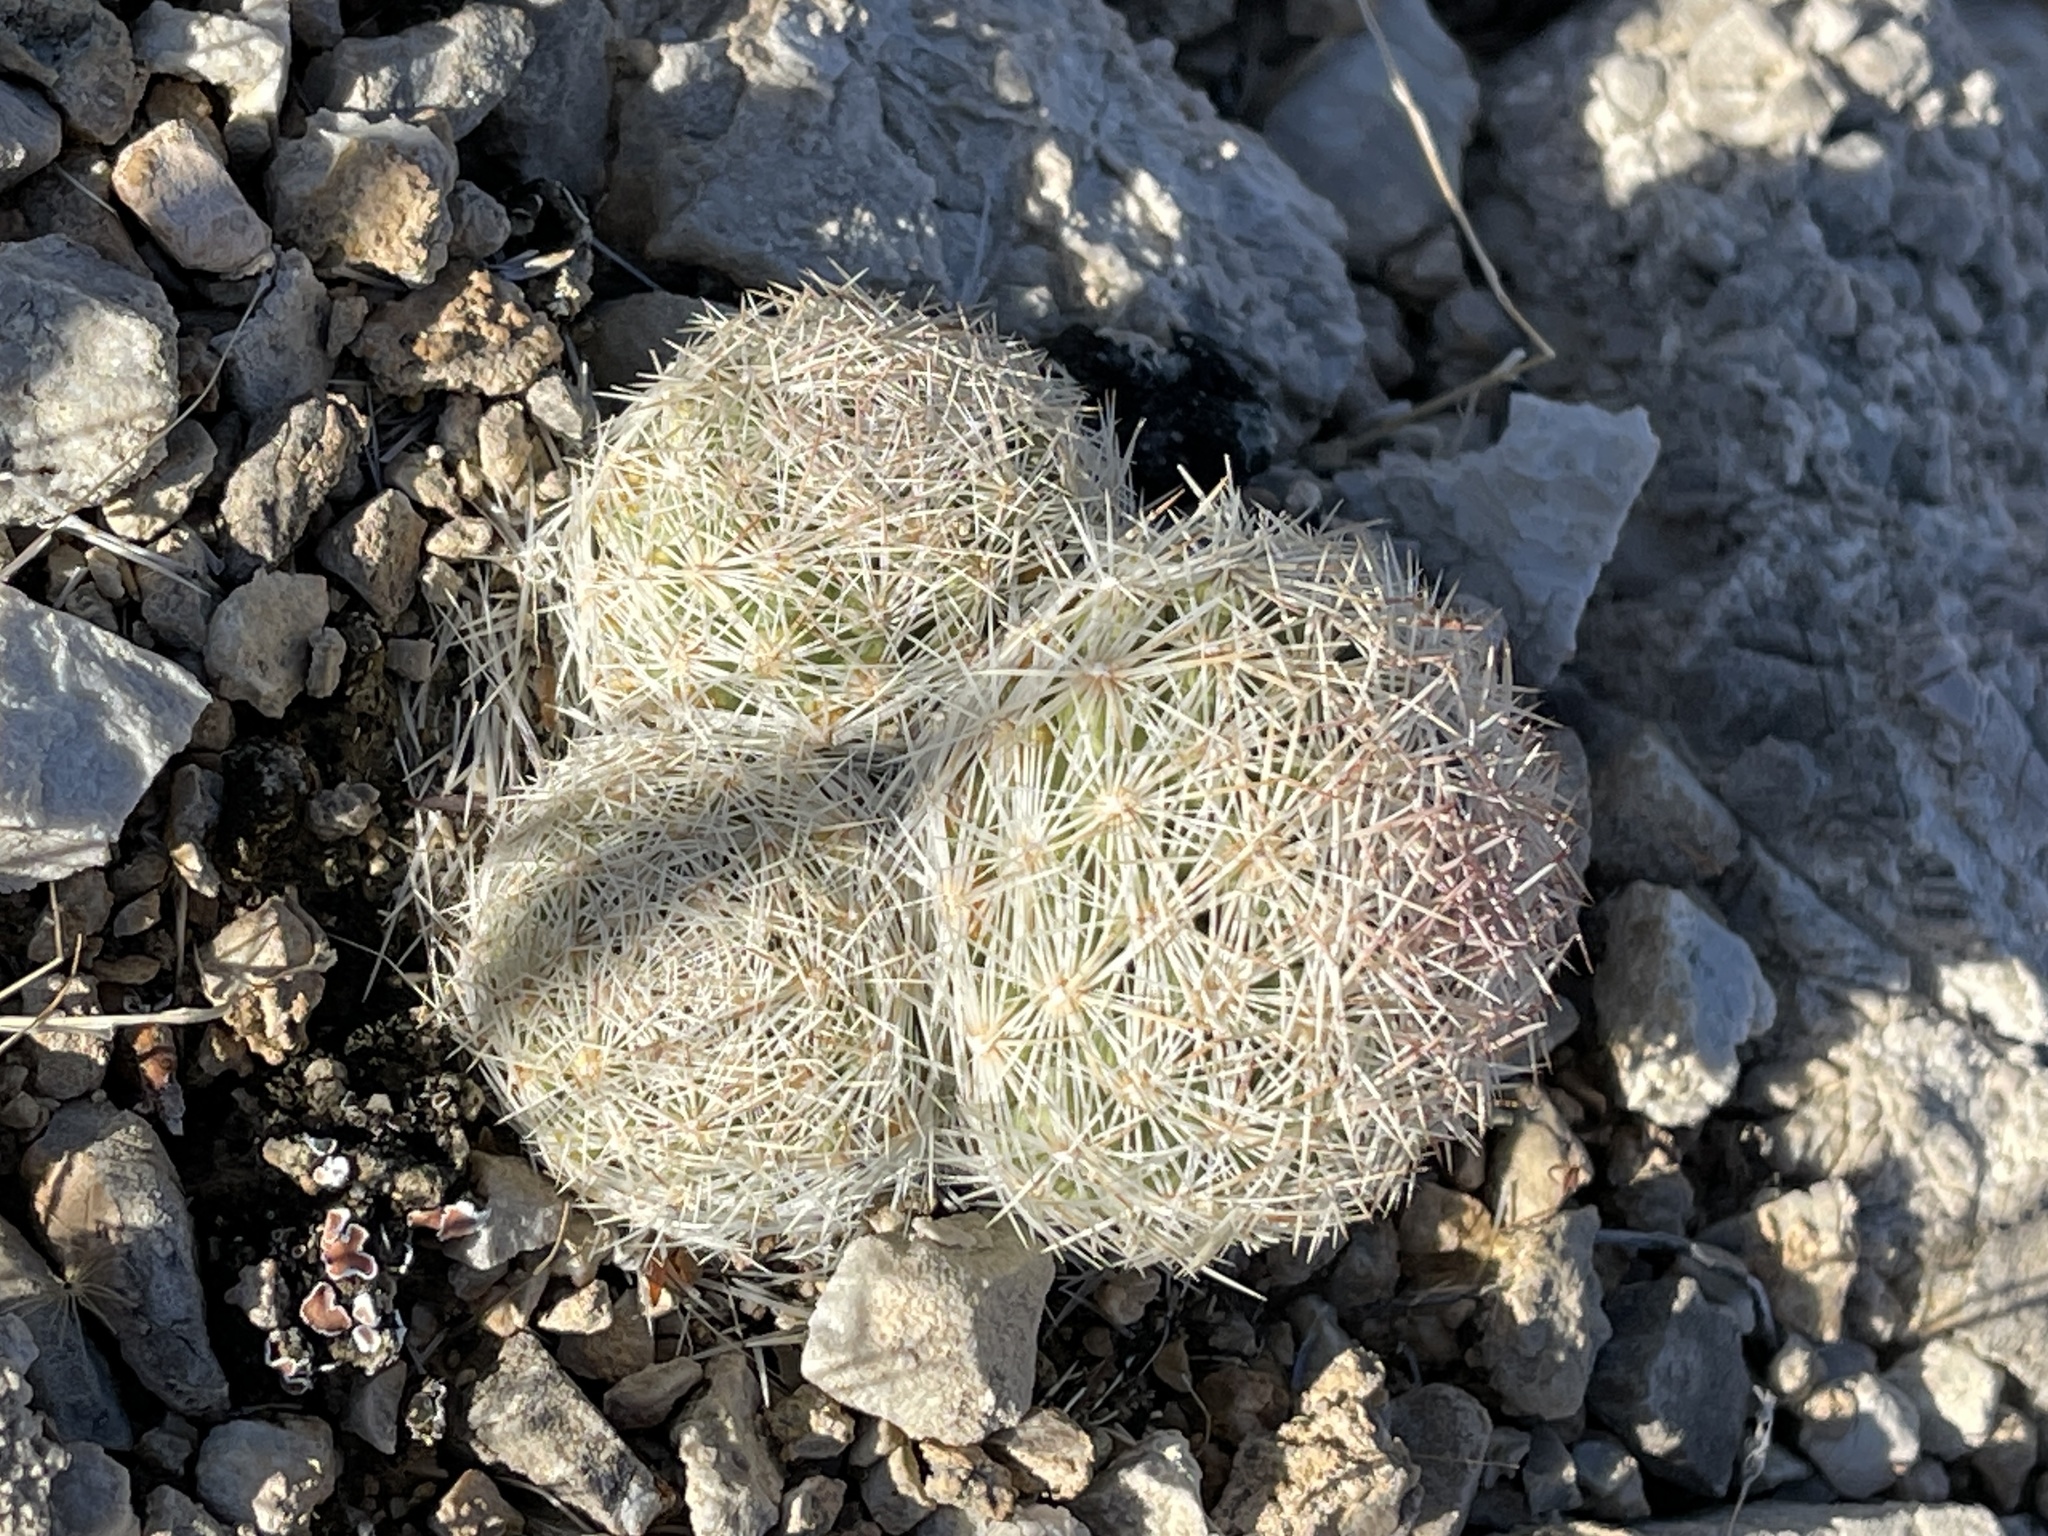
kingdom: Plantae
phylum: Tracheophyta
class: Magnoliopsida
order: Caryophyllales
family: Cactaceae
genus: Pelecyphora
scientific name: Pelecyphora dasyacantha
